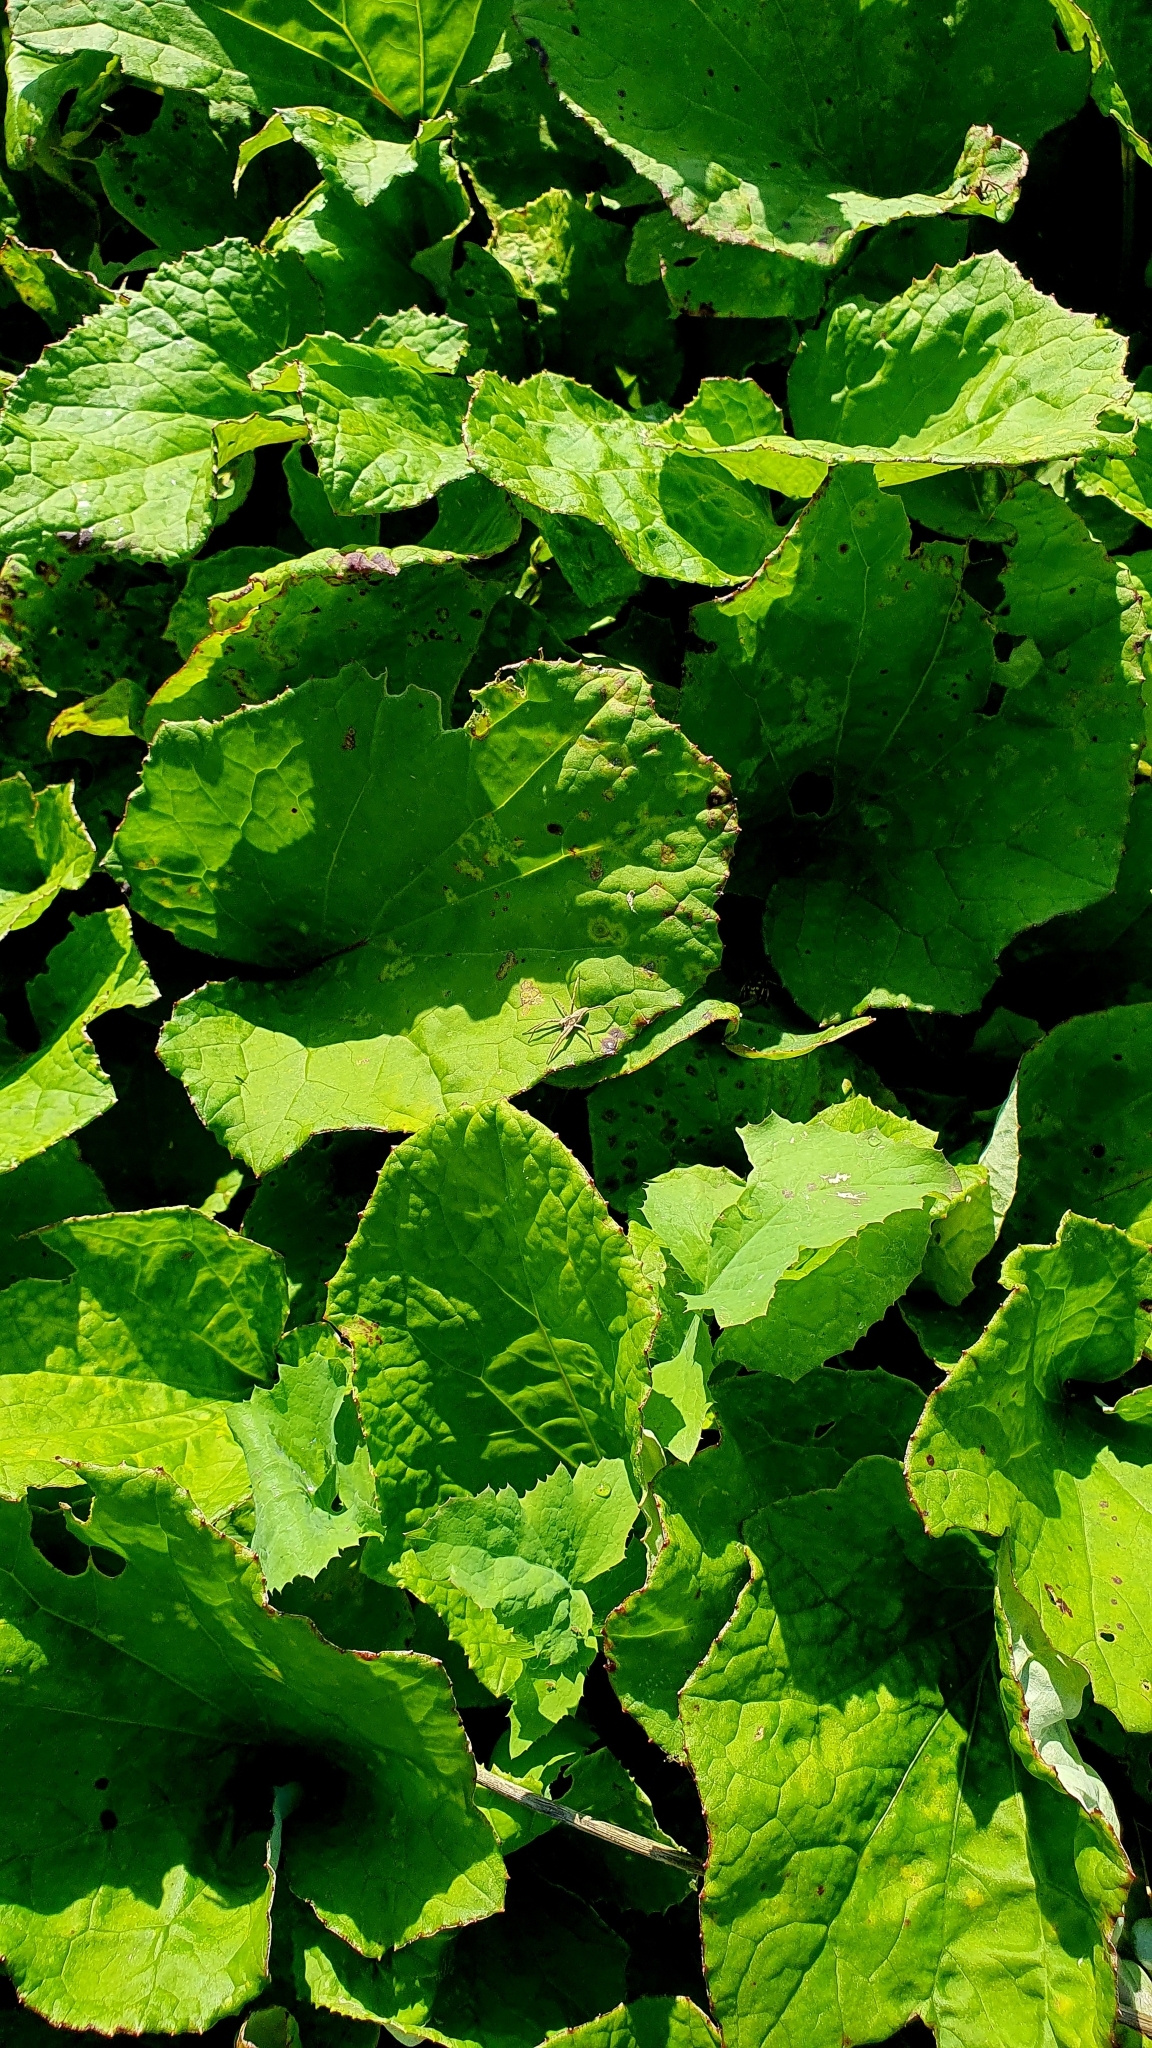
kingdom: Plantae
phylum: Tracheophyta
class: Magnoliopsida
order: Asterales
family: Asteraceae
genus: Tussilago
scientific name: Tussilago farfara
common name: Coltsfoot
